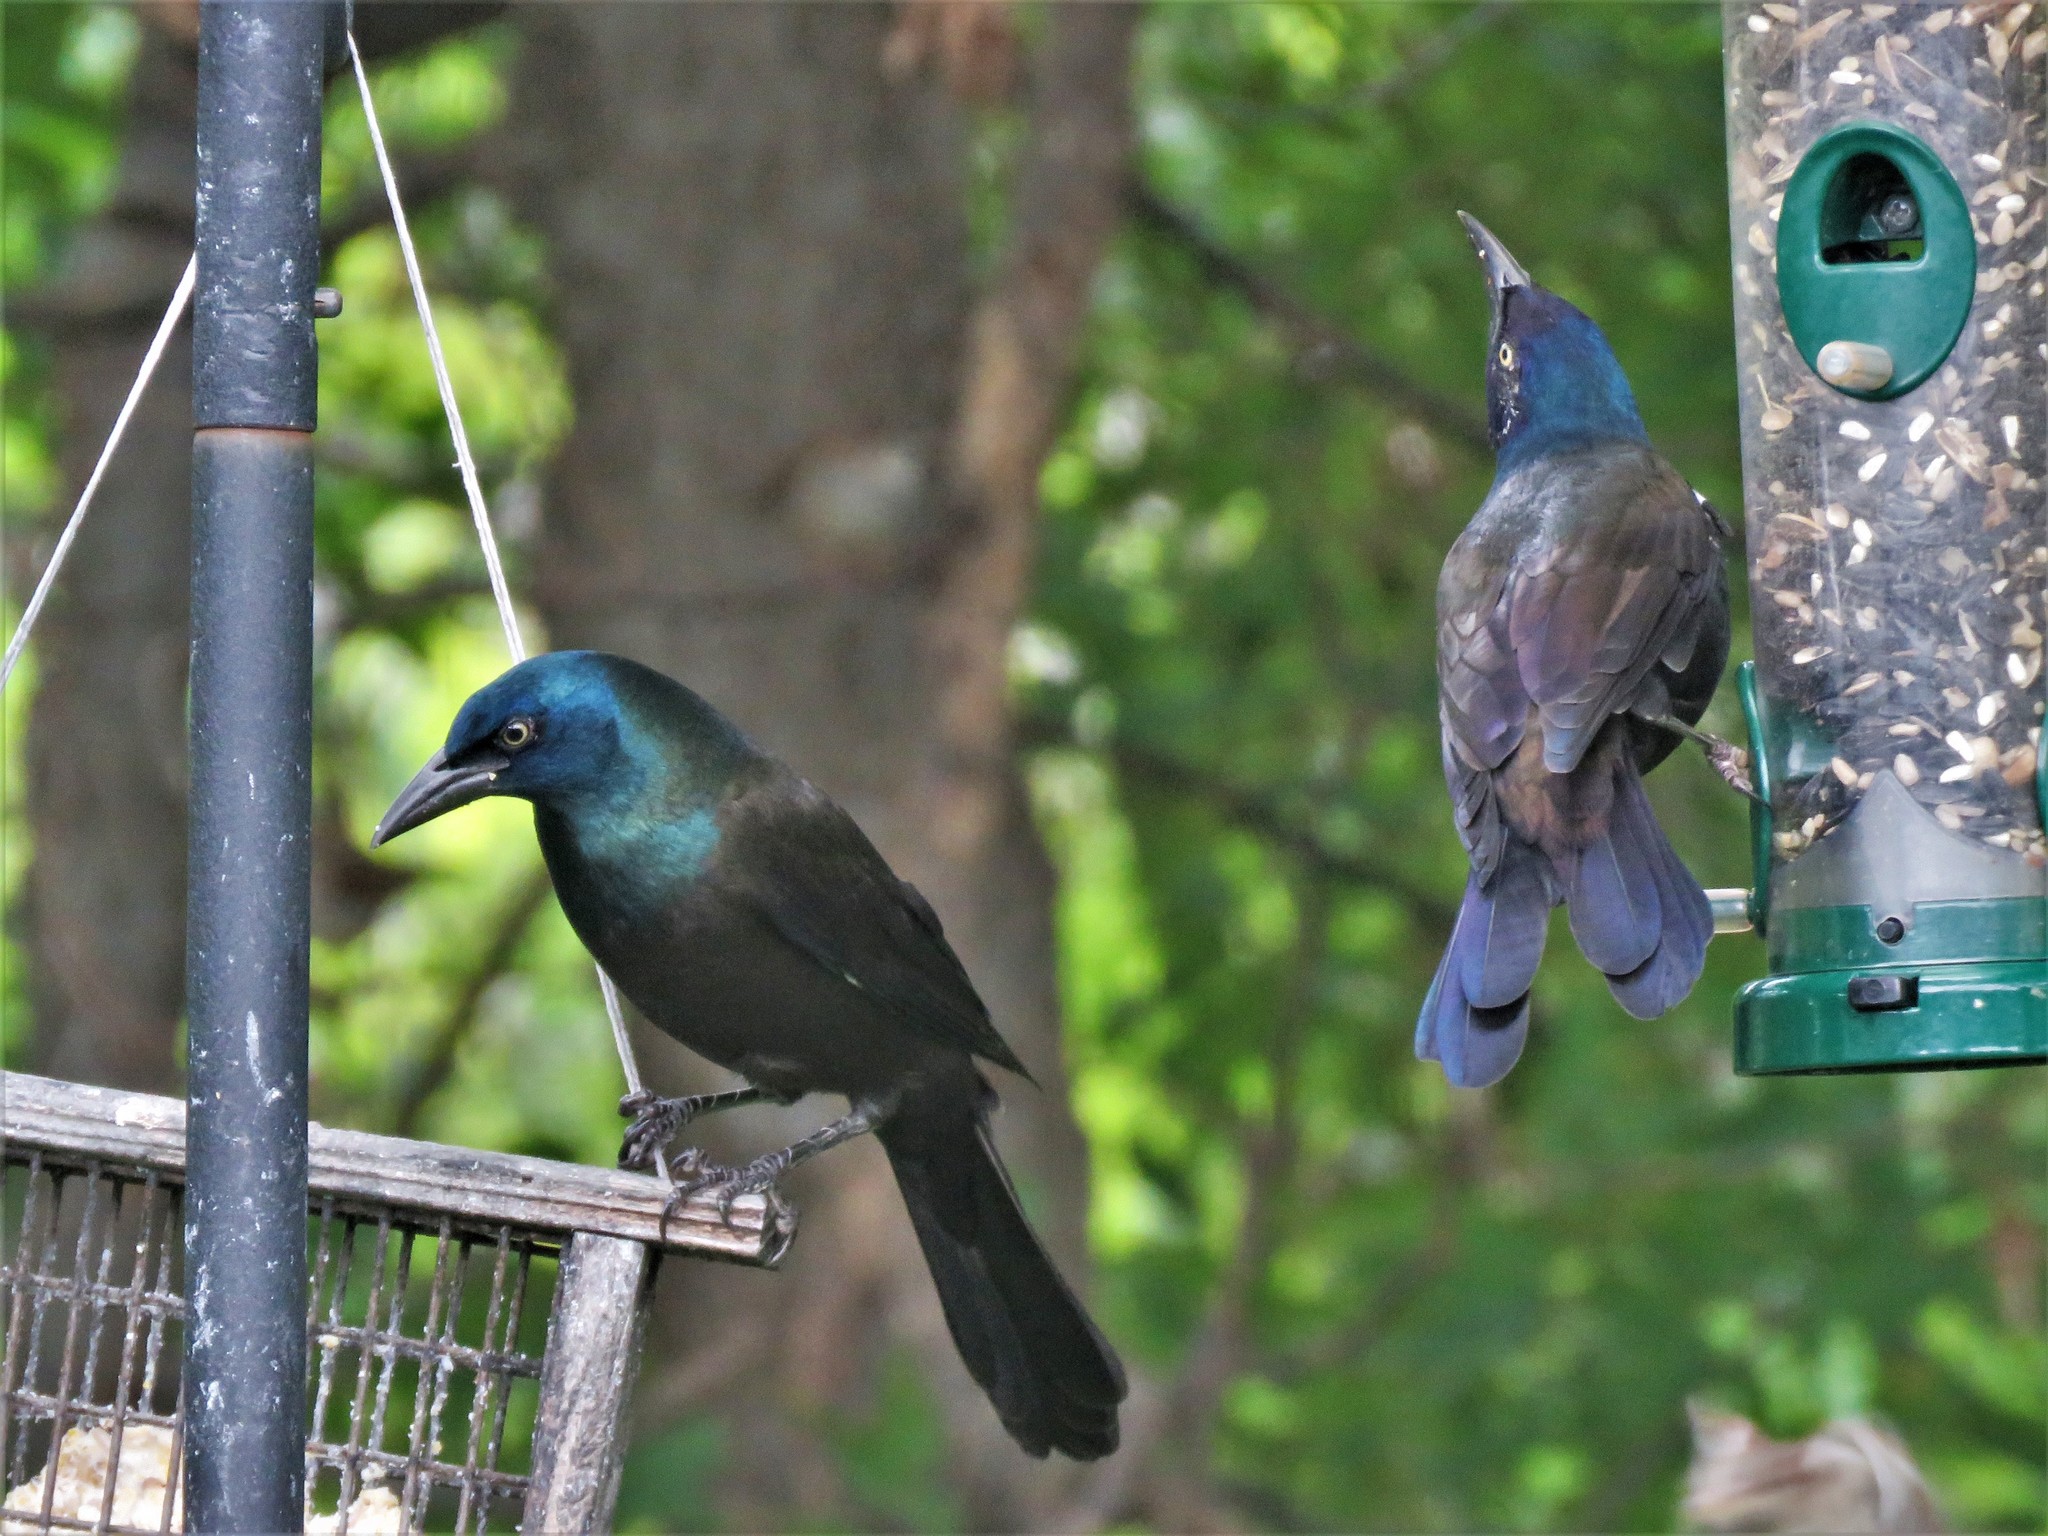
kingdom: Animalia
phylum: Chordata
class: Aves
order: Passeriformes
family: Icteridae
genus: Quiscalus
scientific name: Quiscalus quiscula
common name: Common grackle
